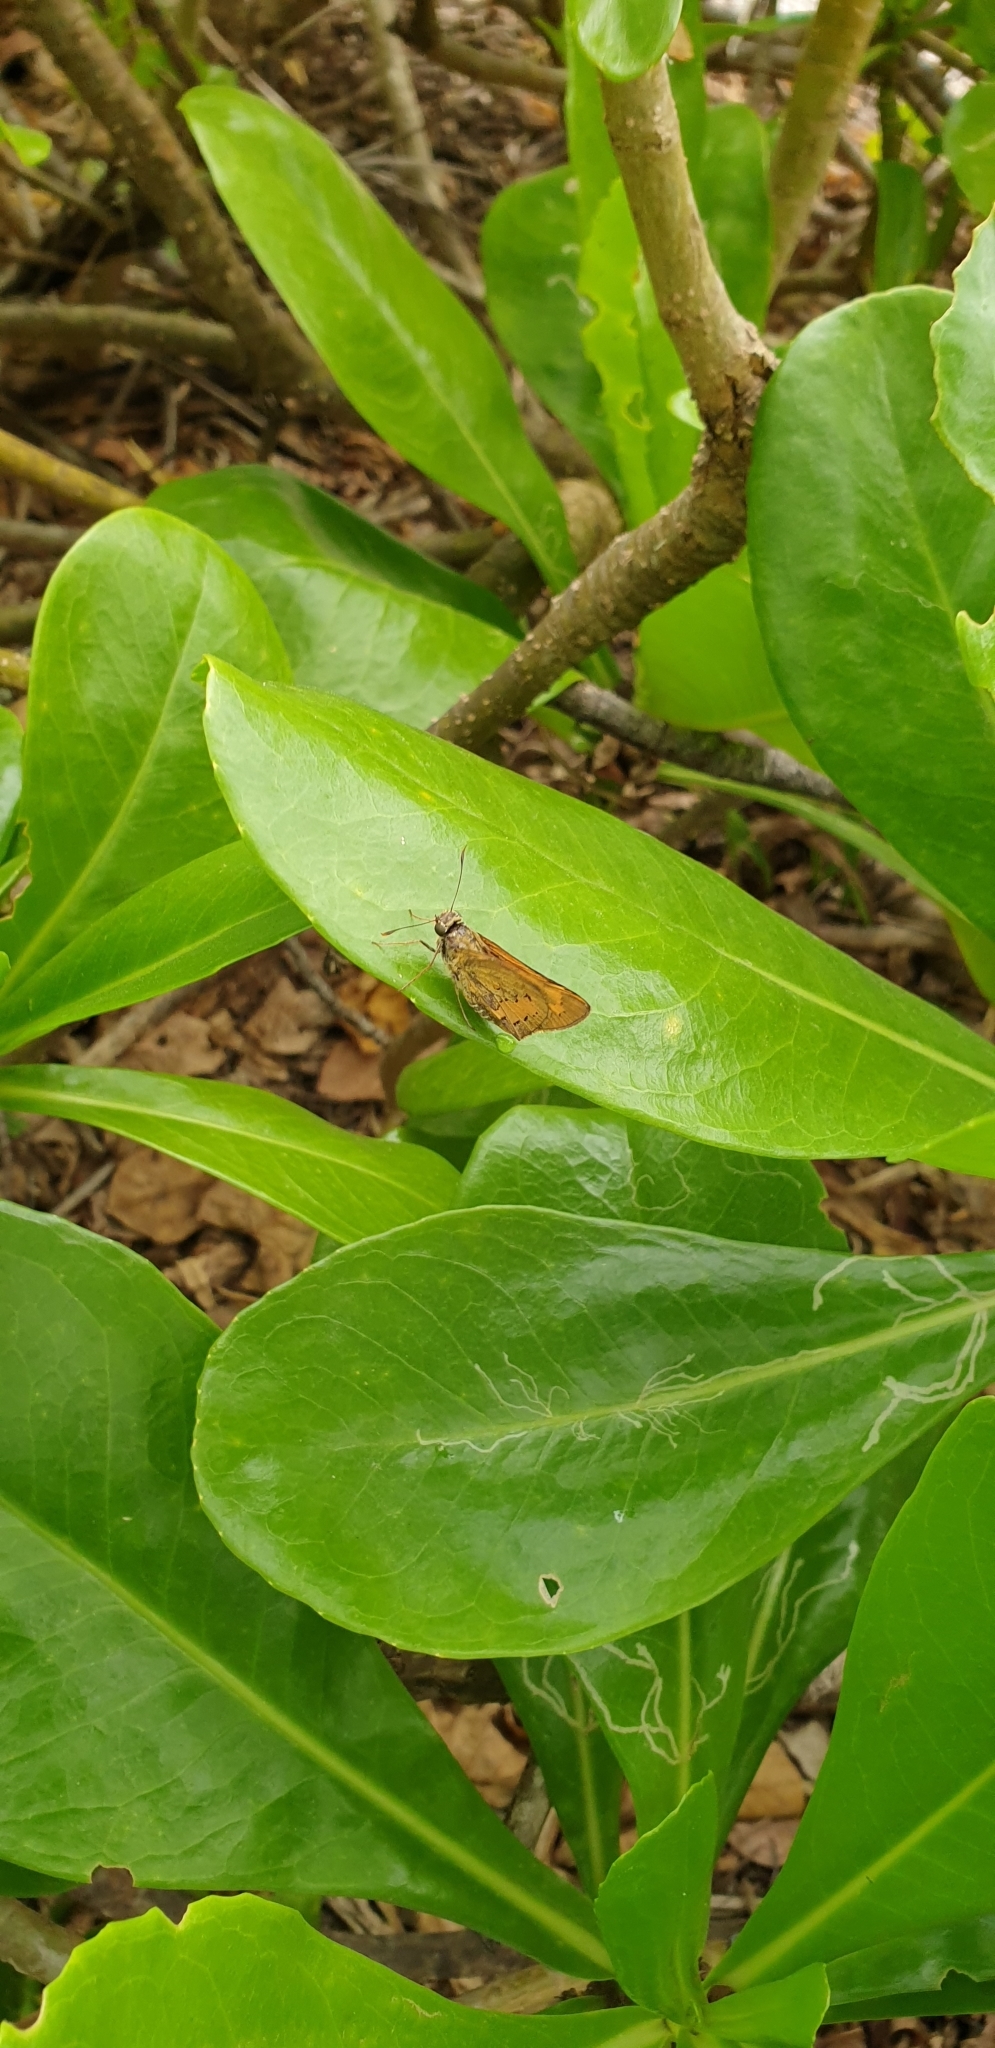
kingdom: Animalia
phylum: Arthropoda
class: Insecta
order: Lepidoptera
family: Hesperiidae
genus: Cephrenes
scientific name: Cephrenes trichopepla
